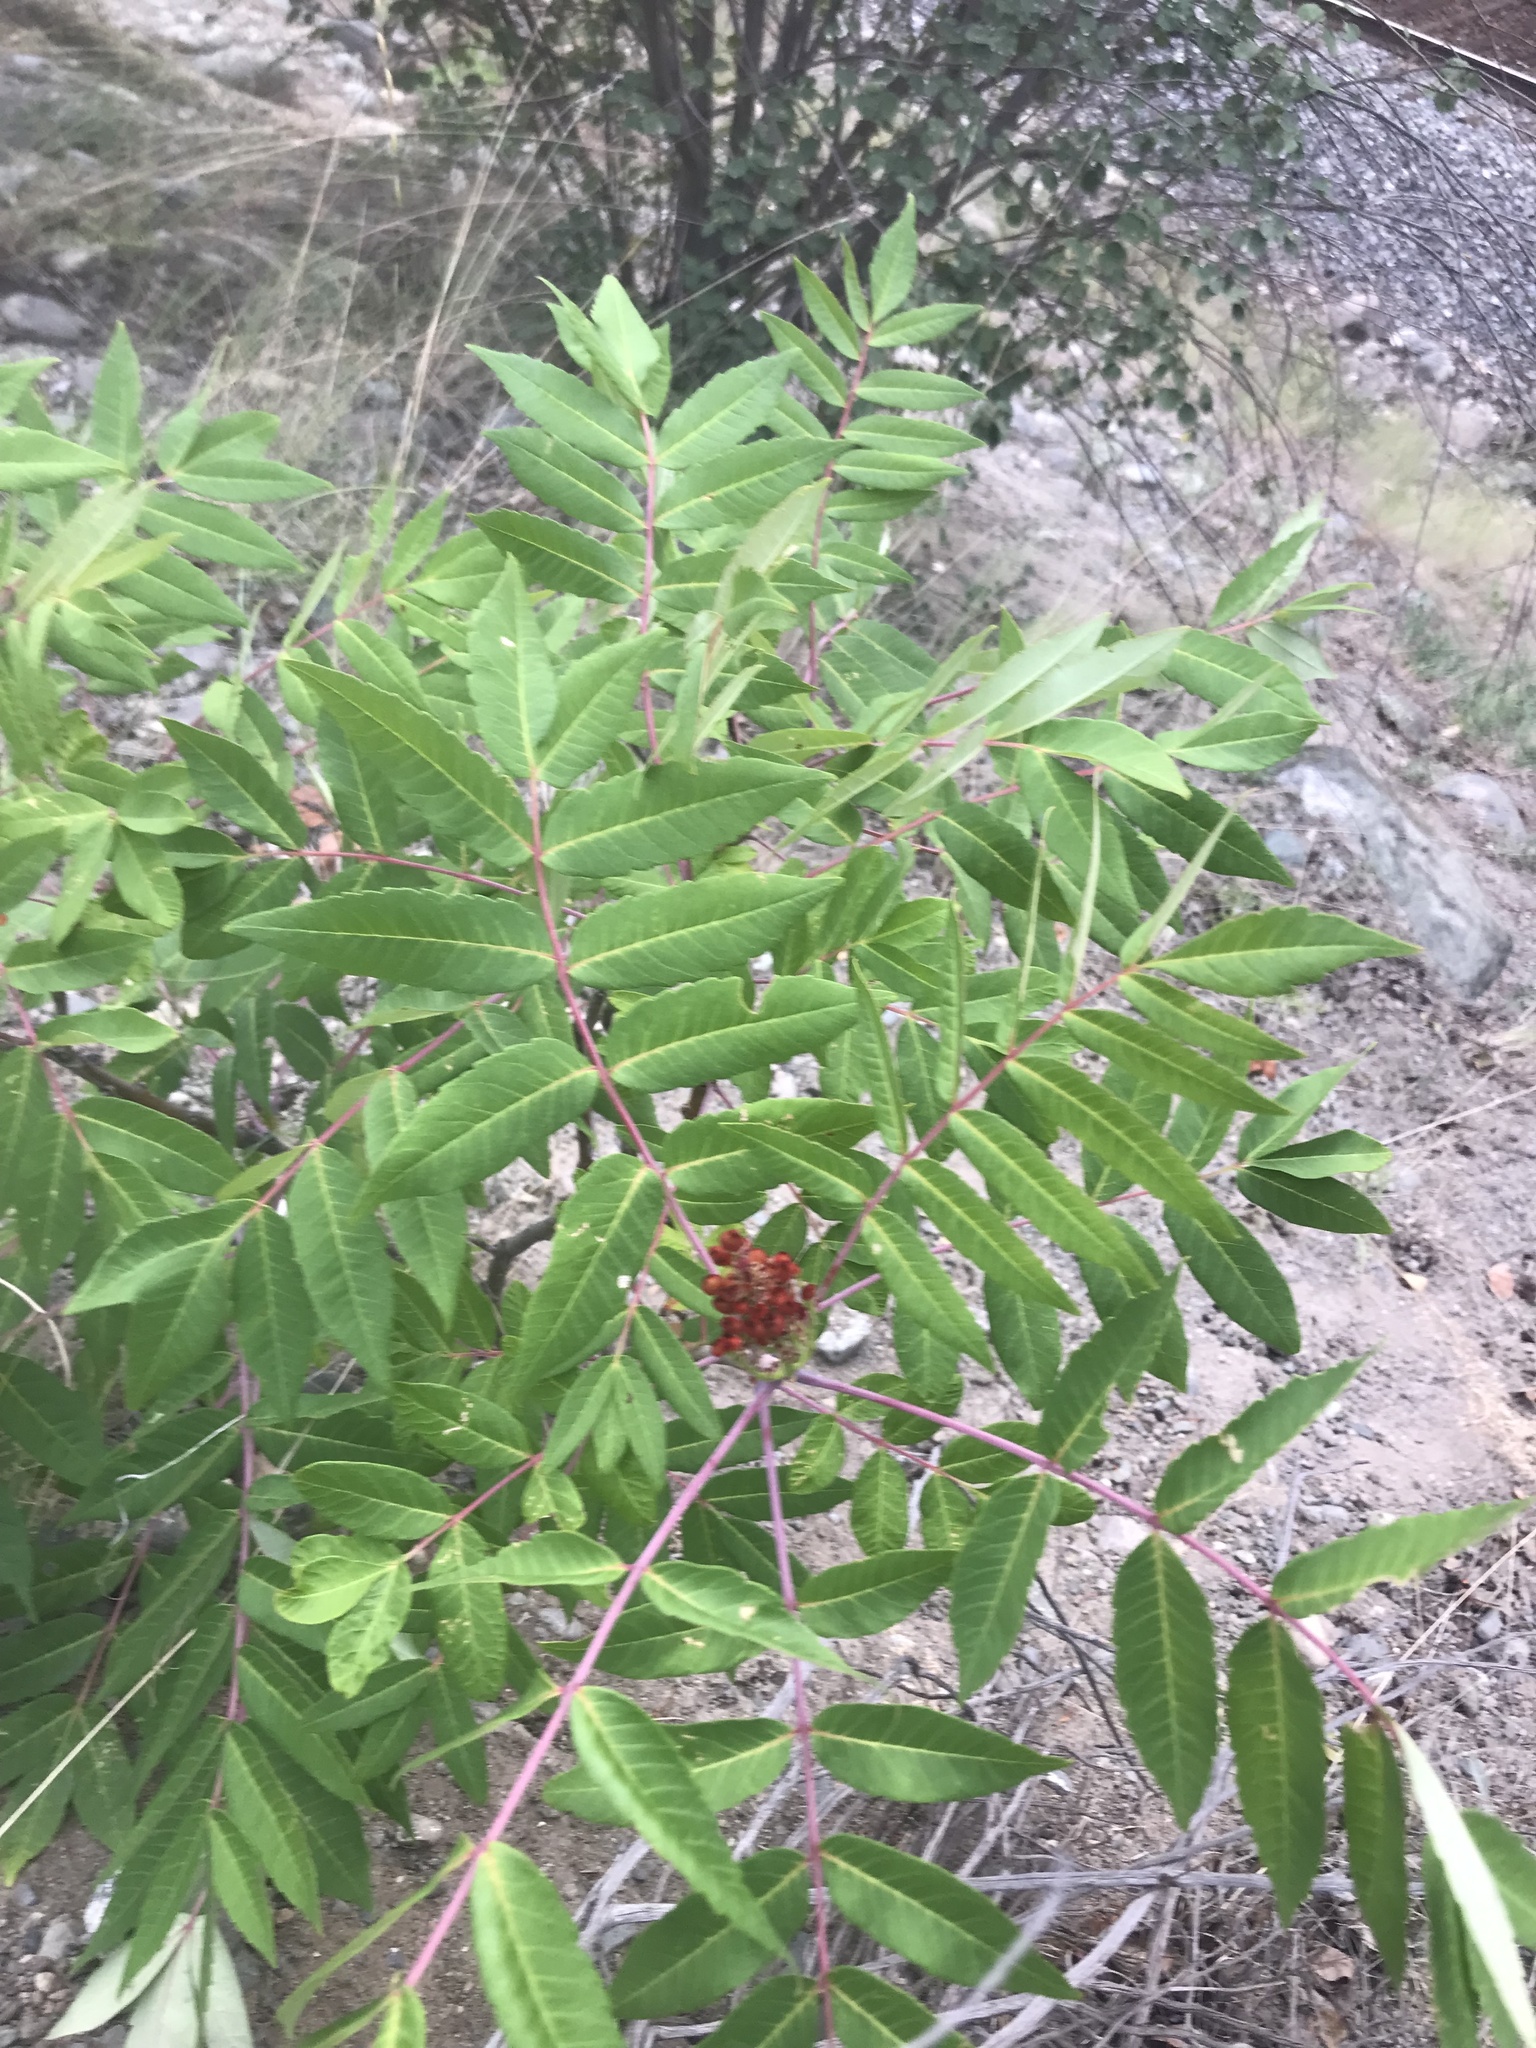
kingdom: Plantae
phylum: Tracheophyta
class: Magnoliopsida
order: Sapindales
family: Anacardiaceae
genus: Rhus
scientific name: Rhus glabra
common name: Scarlet sumac
